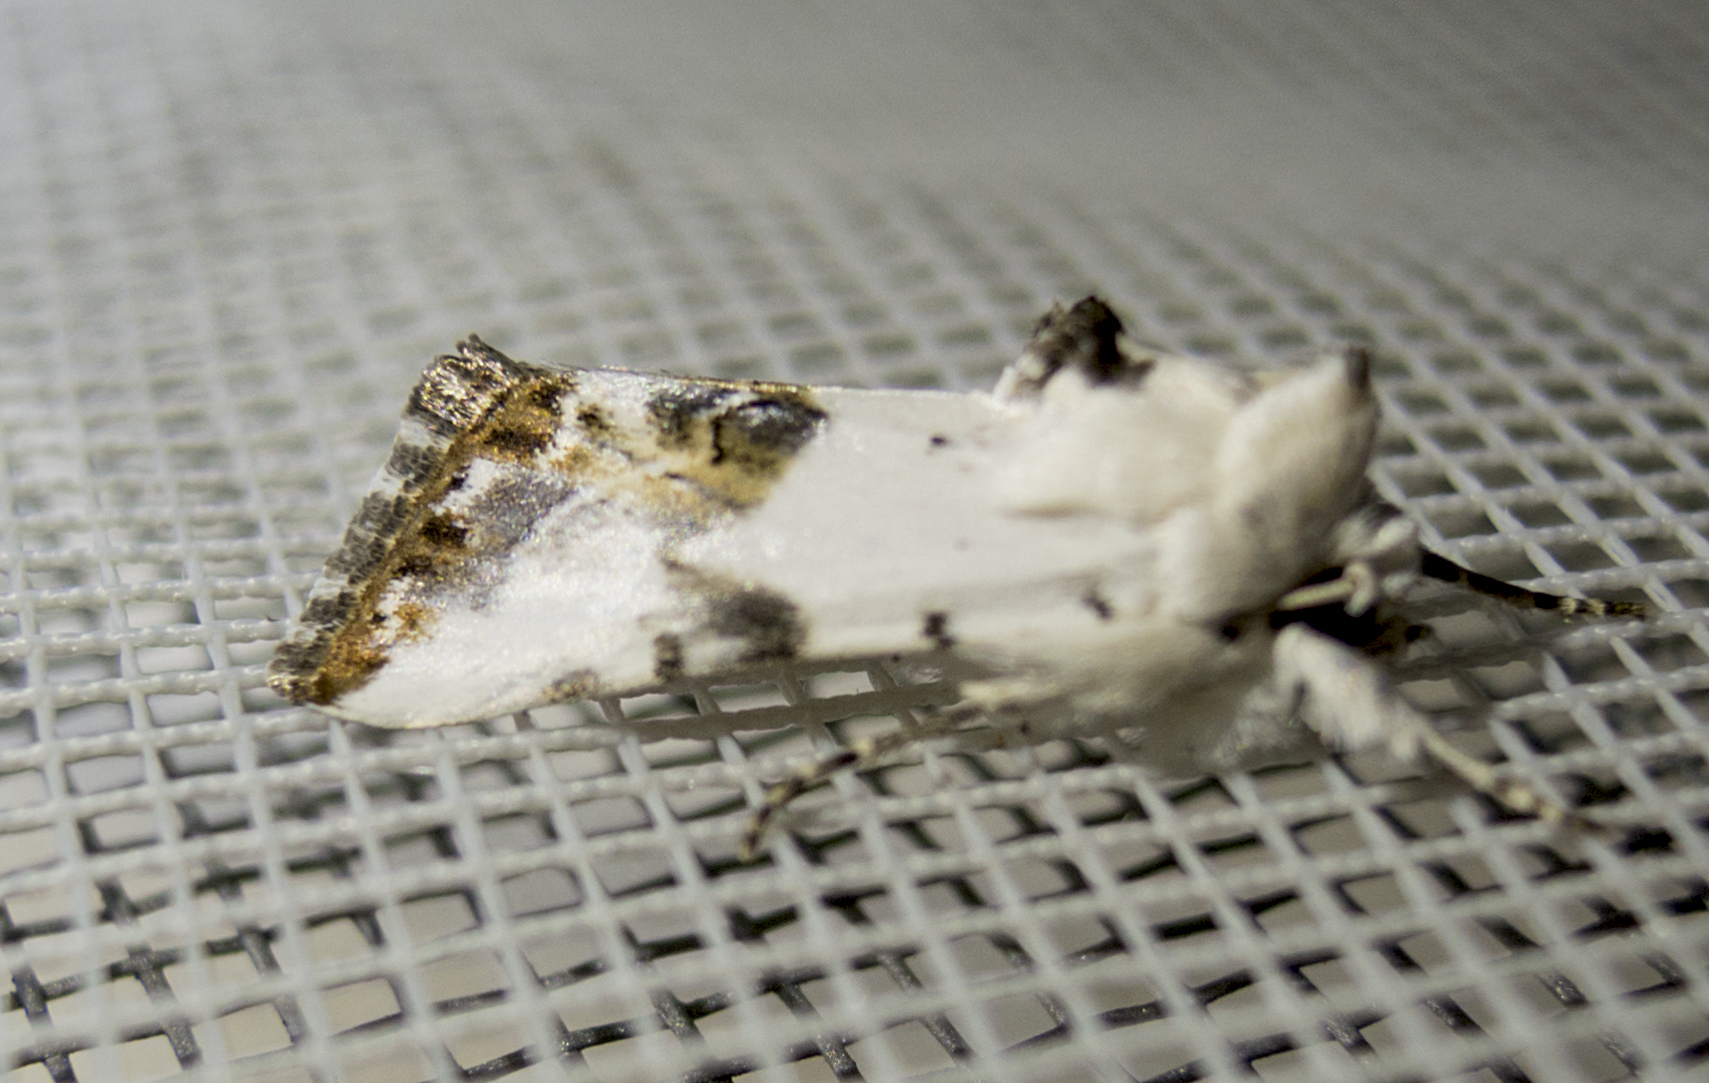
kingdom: Animalia
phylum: Arthropoda
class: Insecta
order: Lepidoptera
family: Noctuidae
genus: Calophasia
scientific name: Calophasia opalina
